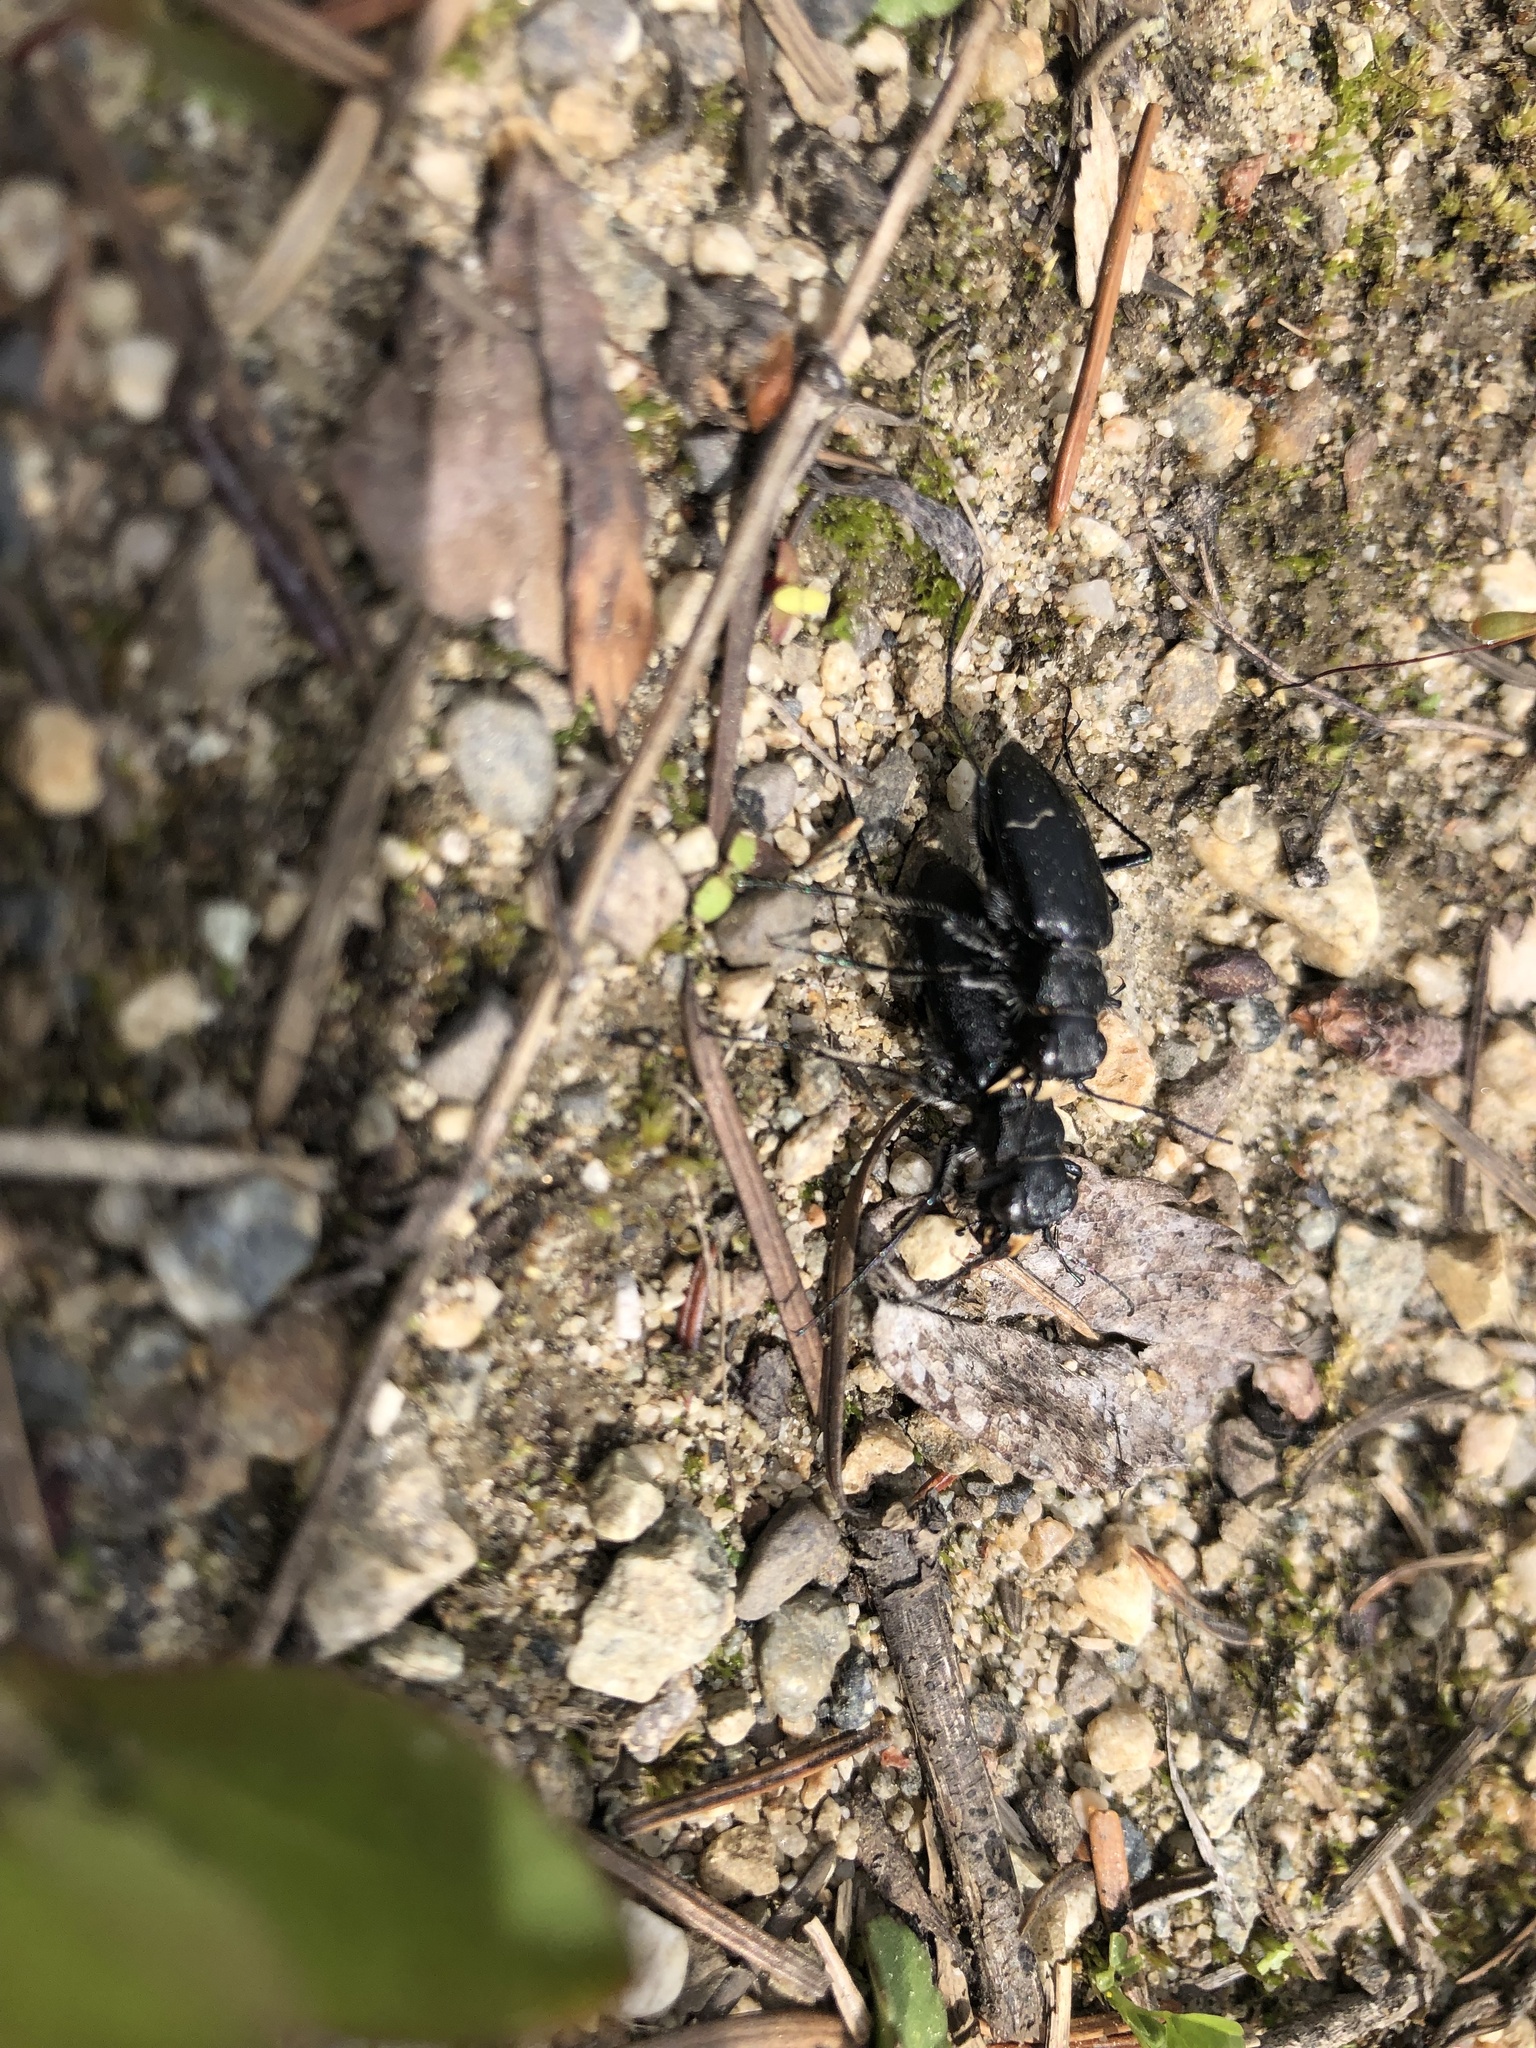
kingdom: Animalia
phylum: Arthropoda
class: Insecta
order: Coleoptera
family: Carabidae
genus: Cicindela
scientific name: Cicindela longilabris
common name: Boreal long-lipped tiger beetle
